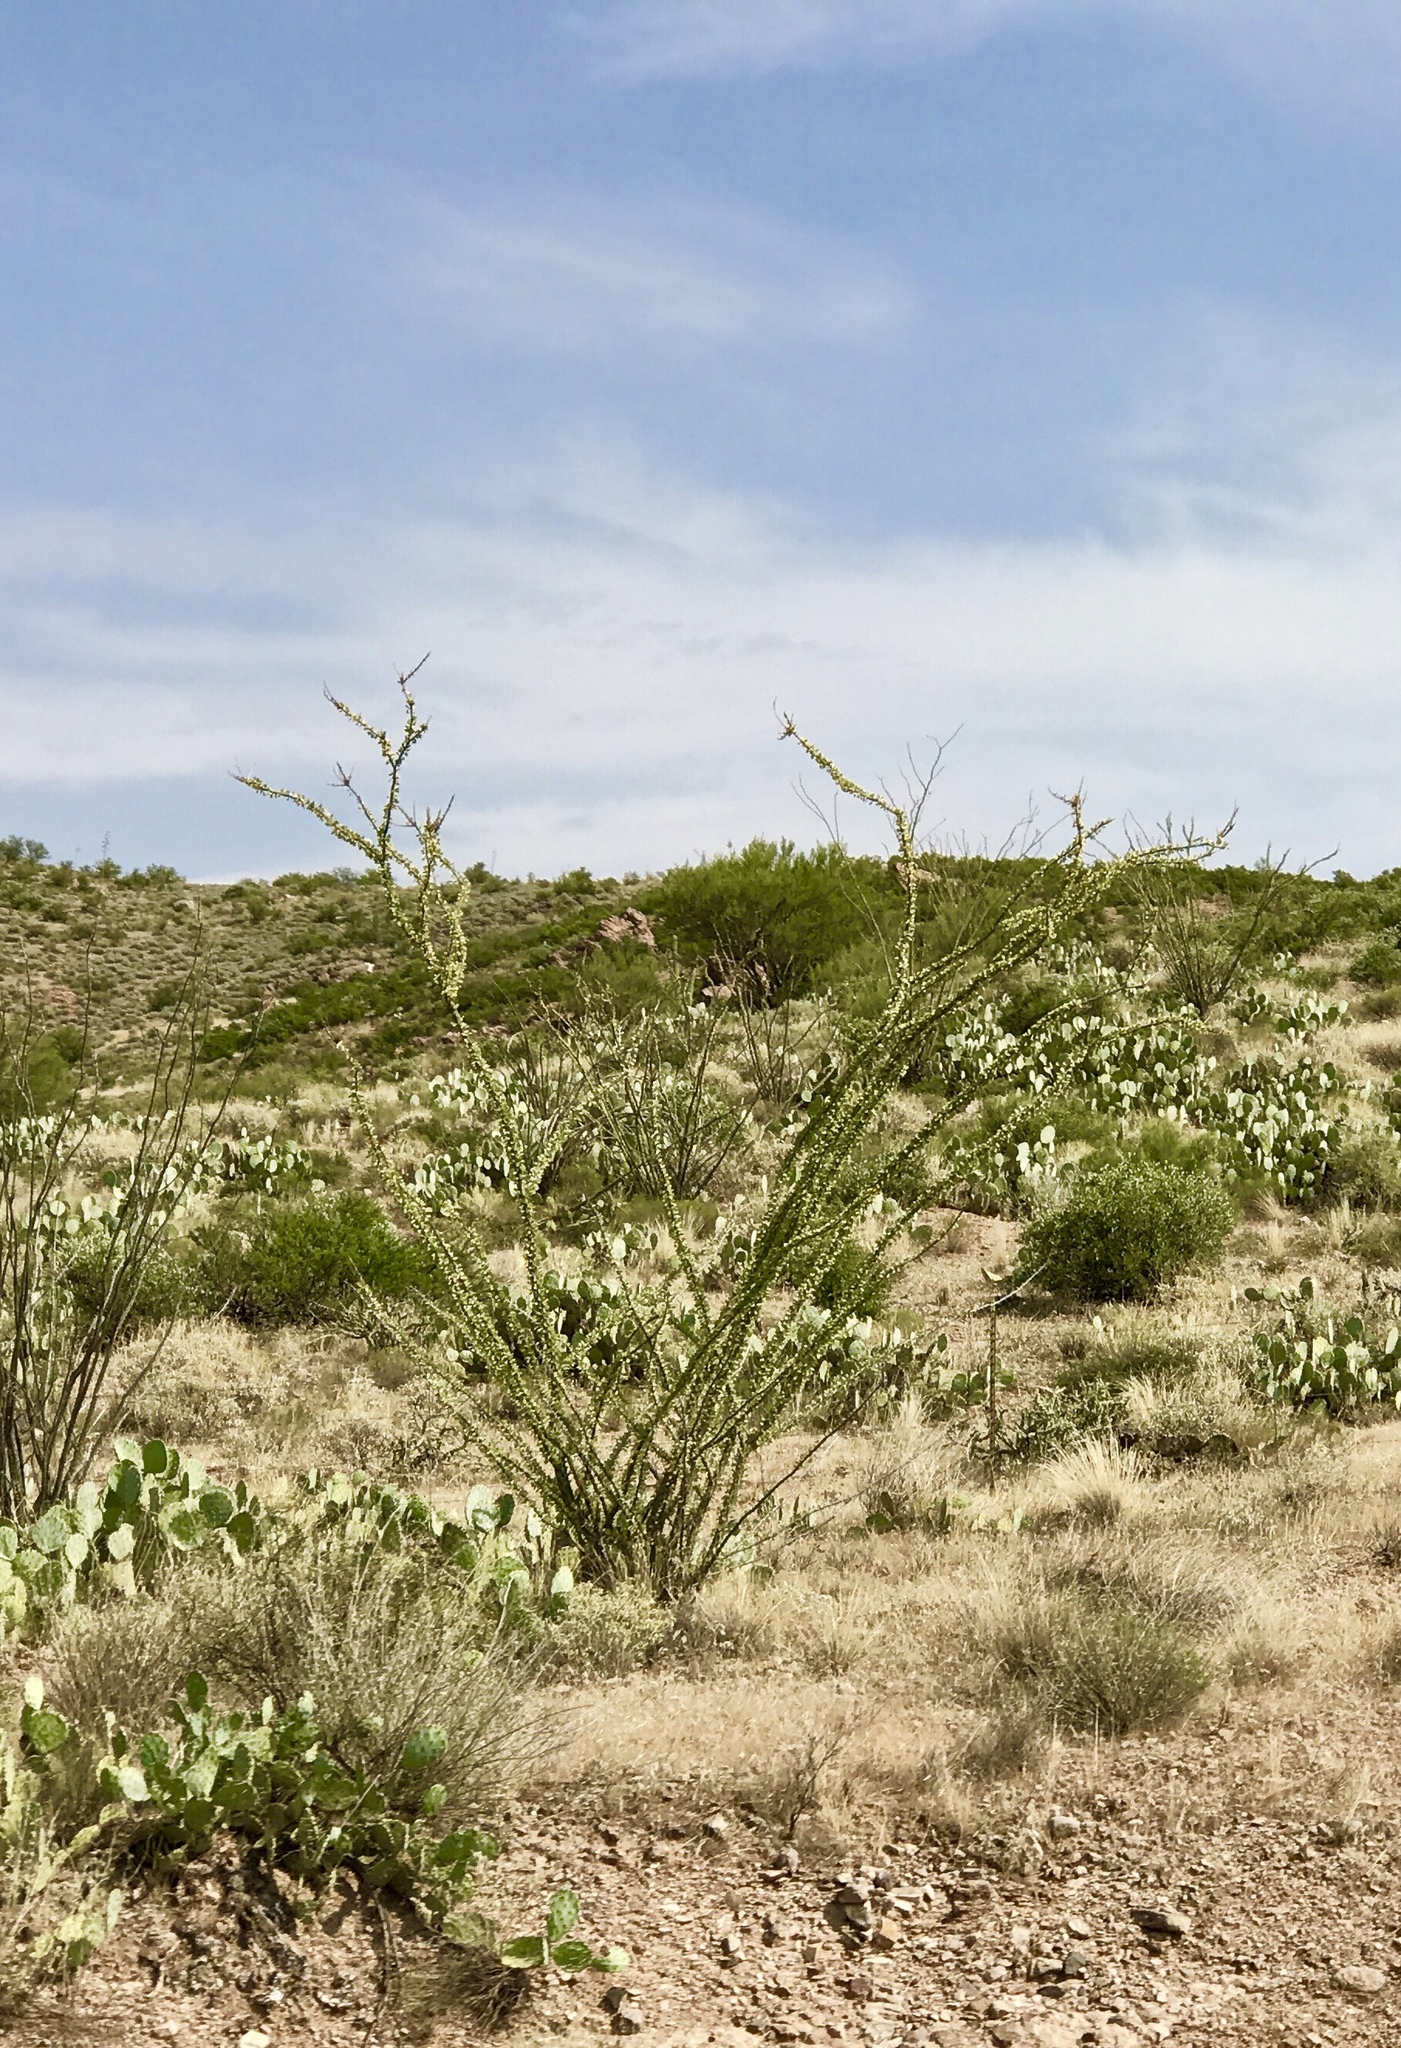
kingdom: Plantae
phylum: Tracheophyta
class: Magnoliopsida
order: Ericales
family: Fouquieriaceae
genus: Fouquieria
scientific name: Fouquieria splendens
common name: Vine-cactus
